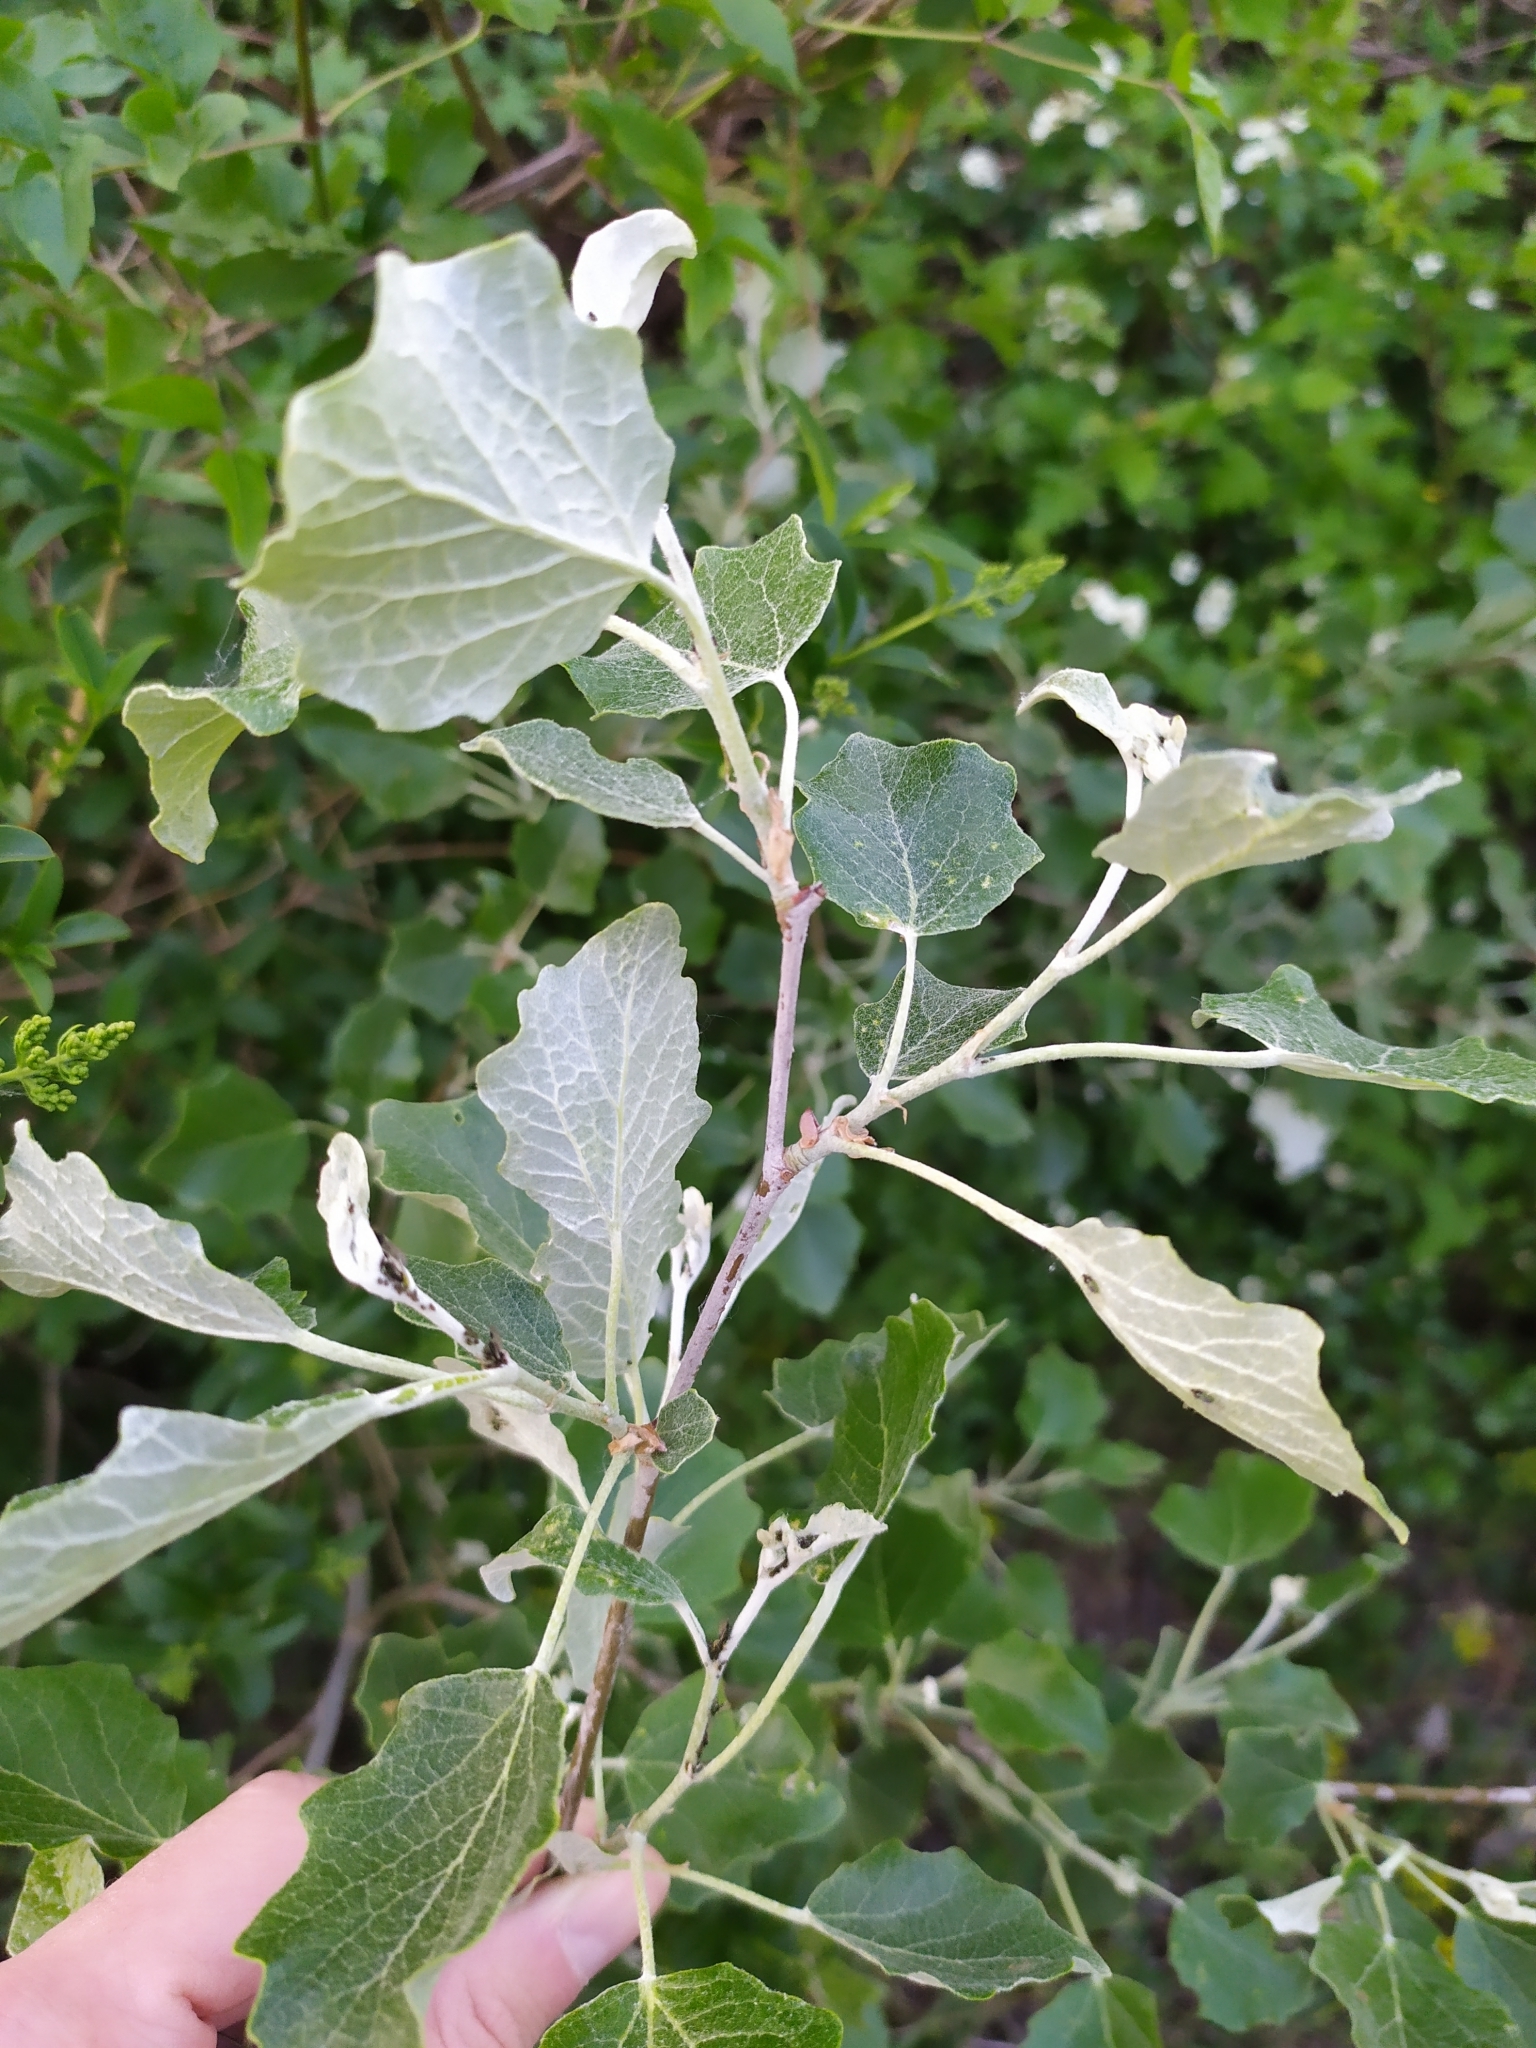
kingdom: Plantae
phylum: Tracheophyta
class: Magnoliopsida
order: Malpighiales
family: Salicaceae
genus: Populus
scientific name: Populus alba
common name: White poplar
